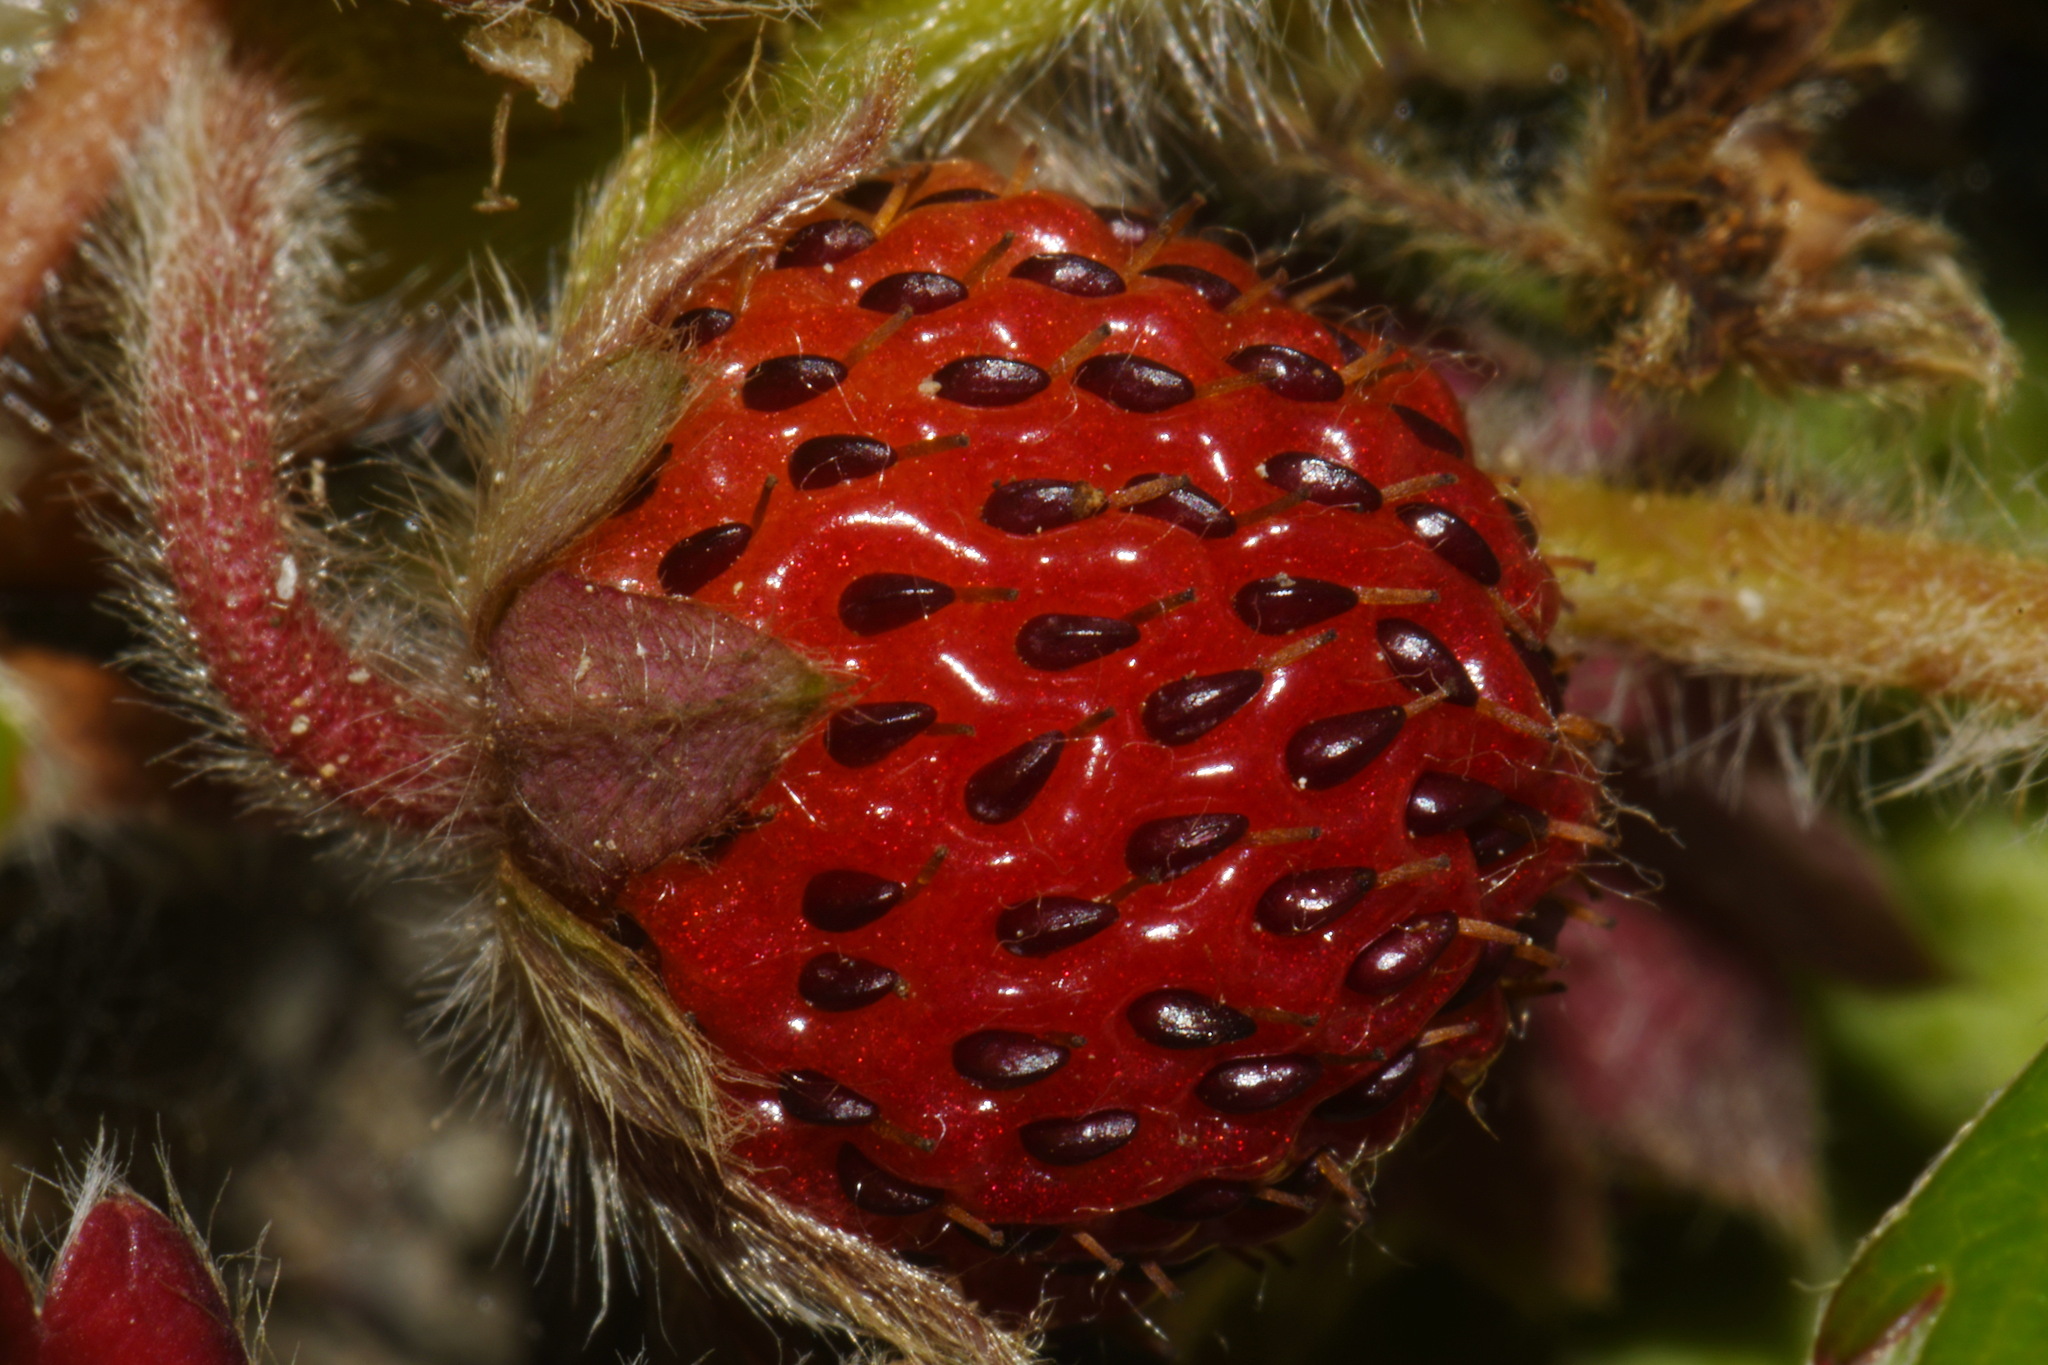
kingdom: Plantae
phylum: Tracheophyta
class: Magnoliopsida
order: Rosales
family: Rosaceae
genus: Fragaria
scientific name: Fragaria chiloensis
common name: Beach strawberry
